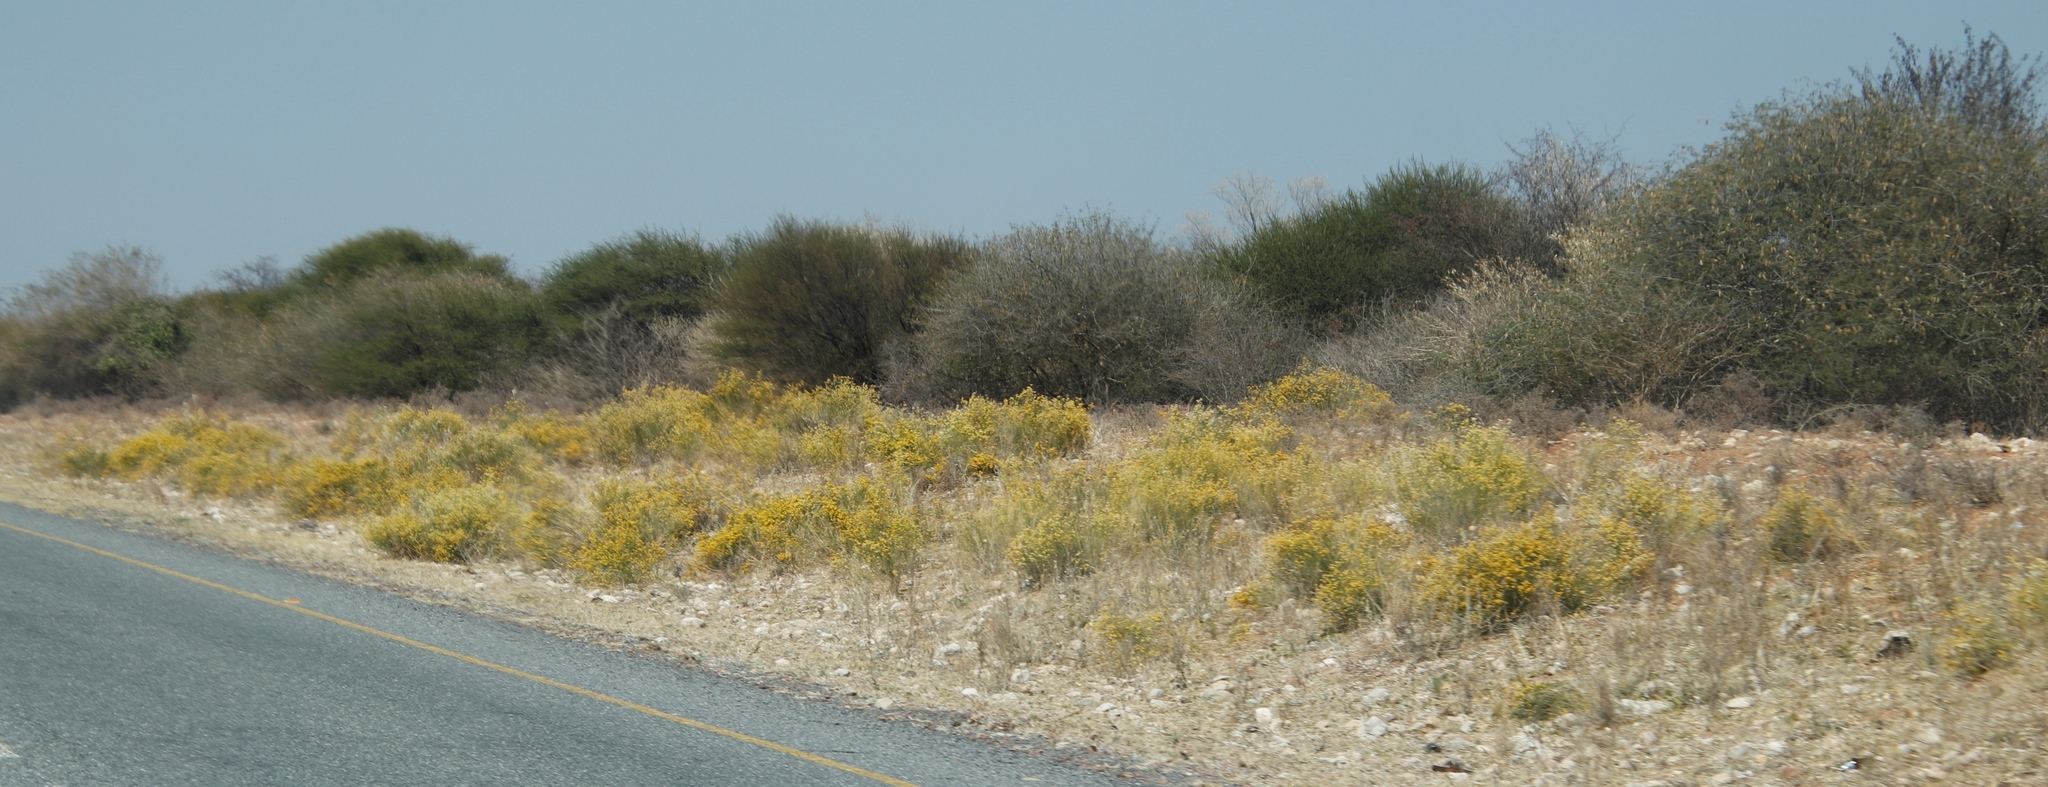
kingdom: Plantae
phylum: Tracheophyta
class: Magnoliopsida
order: Malvales
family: Thymelaeaceae
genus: Gnidia
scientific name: Gnidia polycephala
